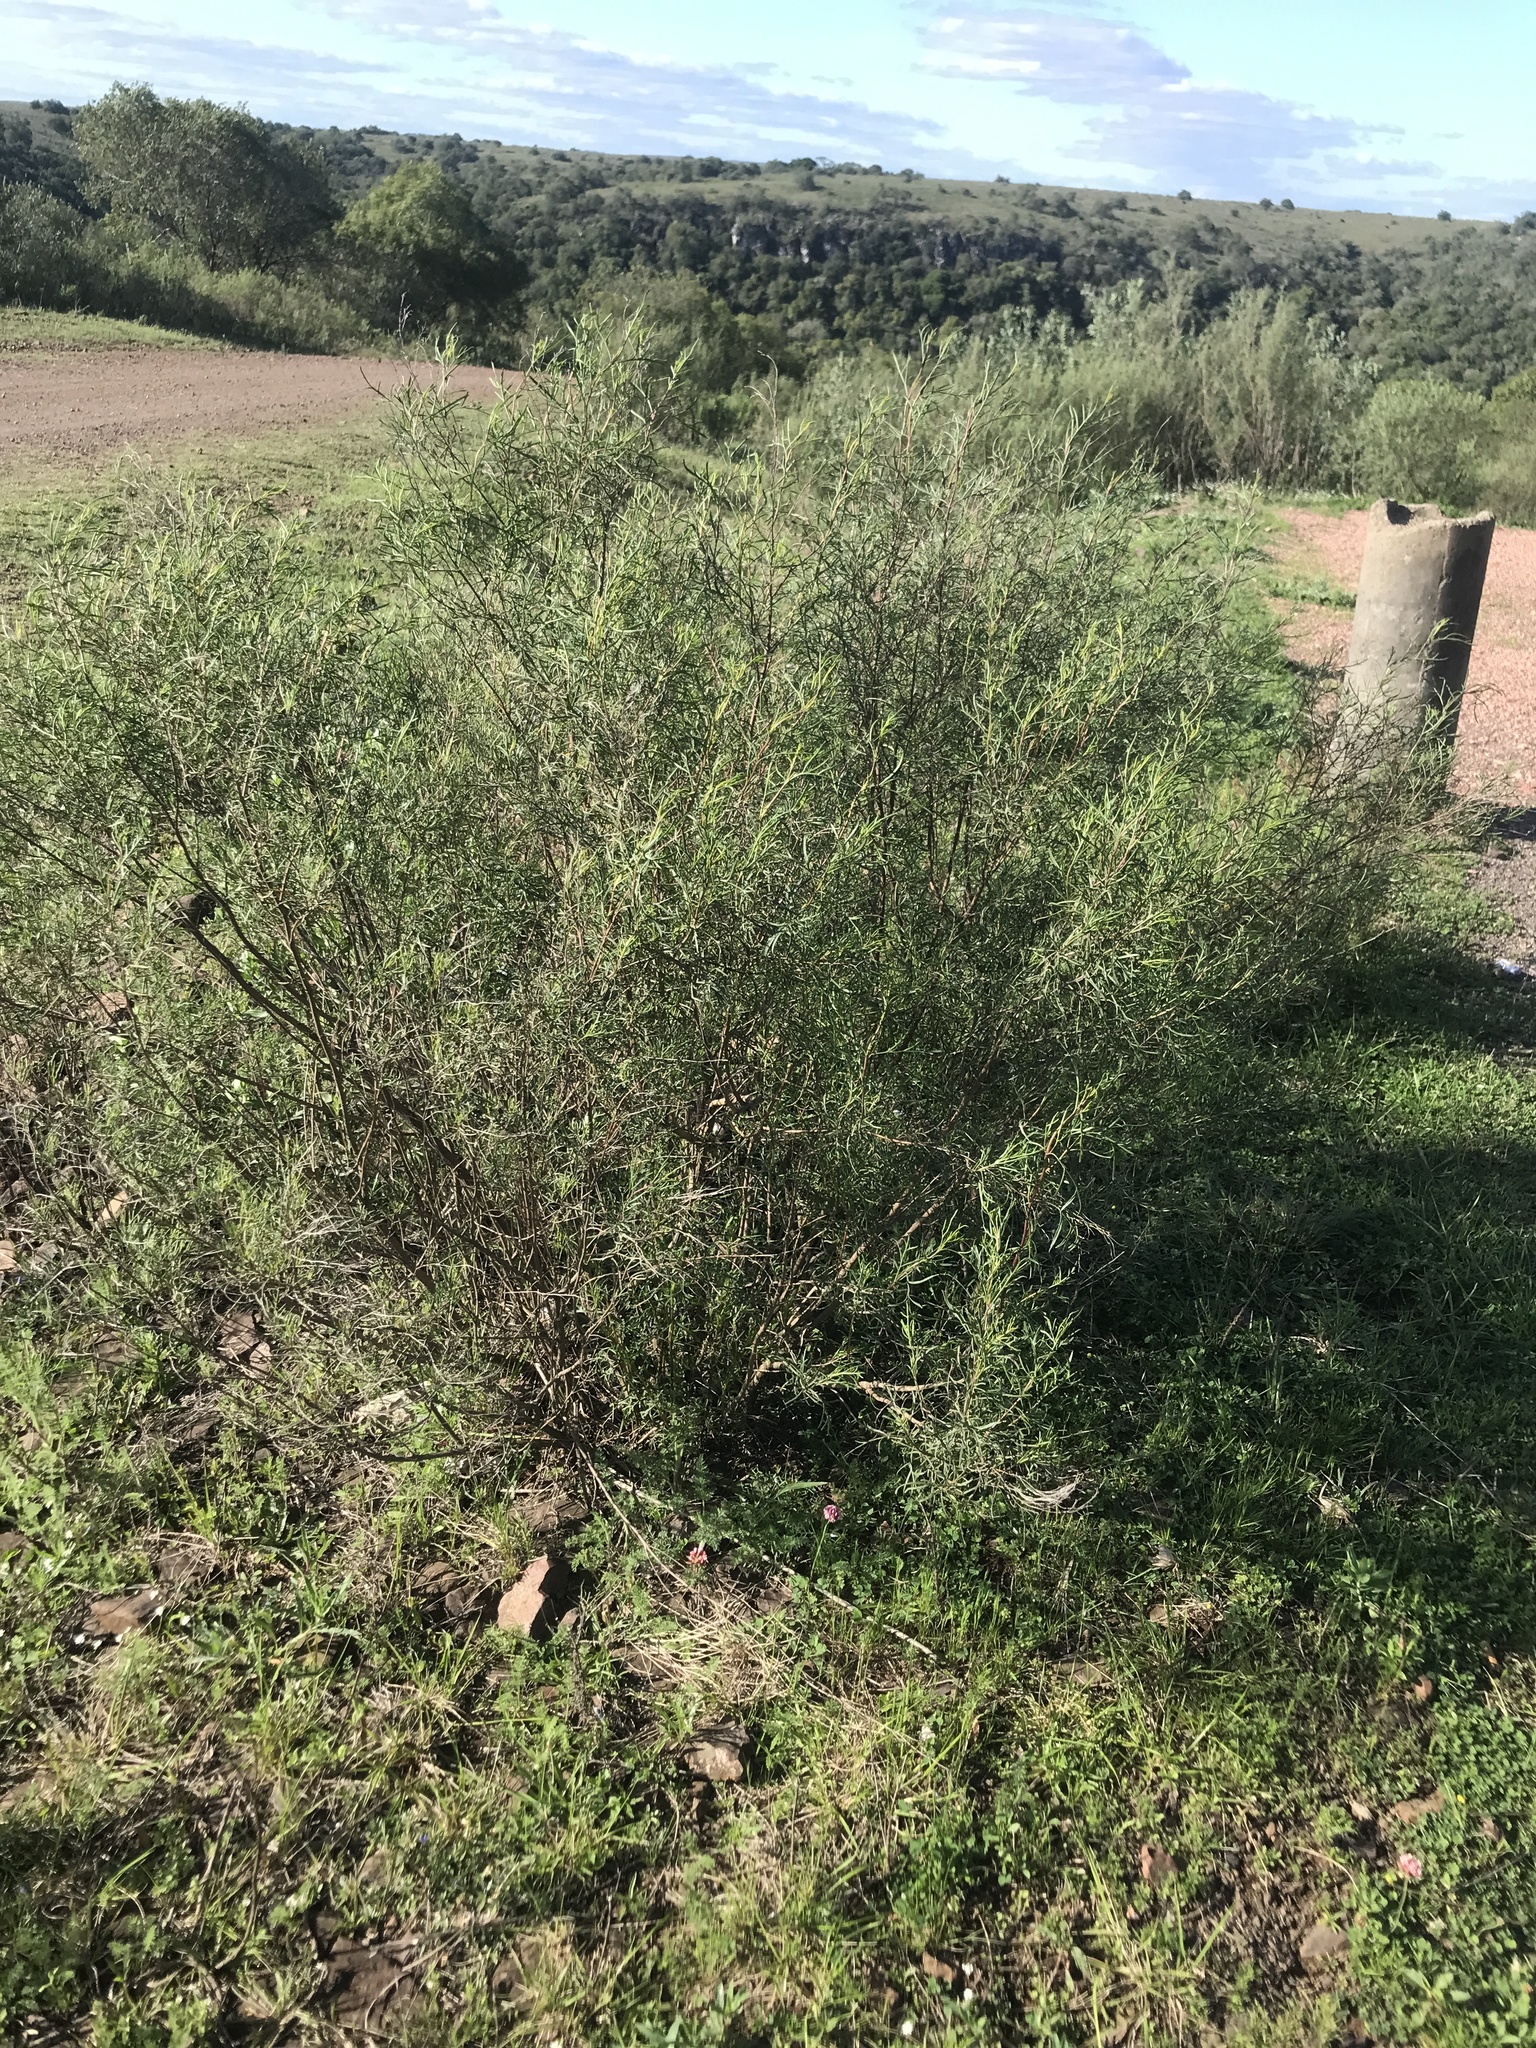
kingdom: Plantae
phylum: Tracheophyta
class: Magnoliopsida
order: Asterales
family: Asteraceae
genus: Acanthostyles
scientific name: Acanthostyles buniifolius
